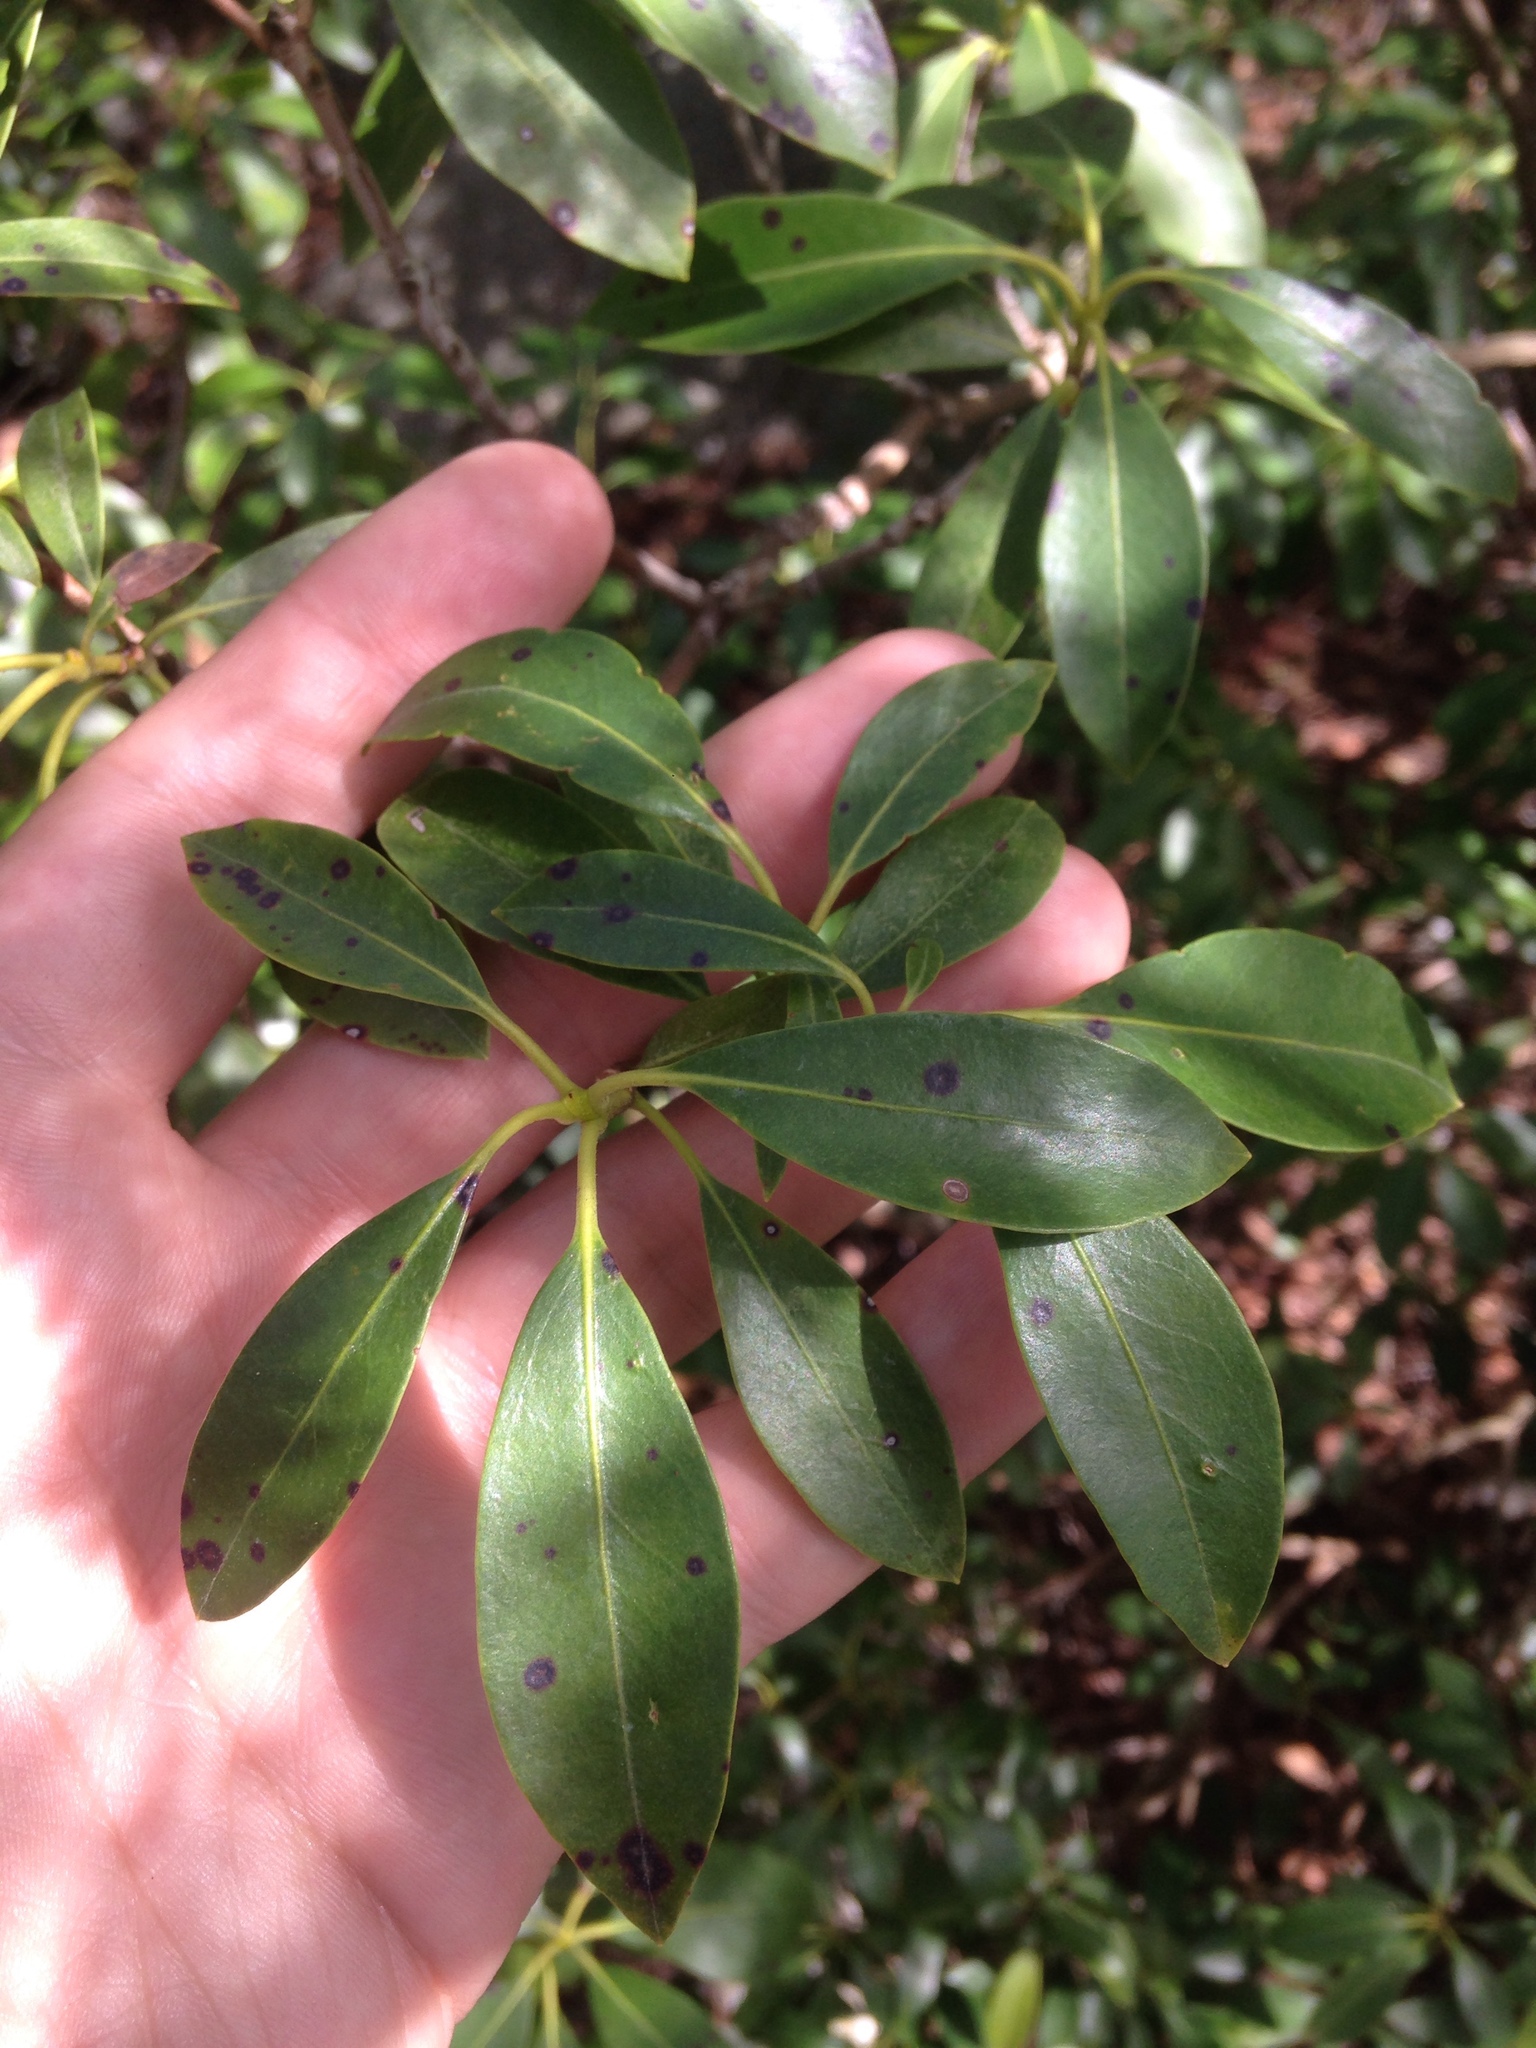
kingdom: Plantae
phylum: Tracheophyta
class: Magnoliopsida
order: Ericales
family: Ericaceae
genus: Kalmia
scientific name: Kalmia latifolia
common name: Mountain-laurel
